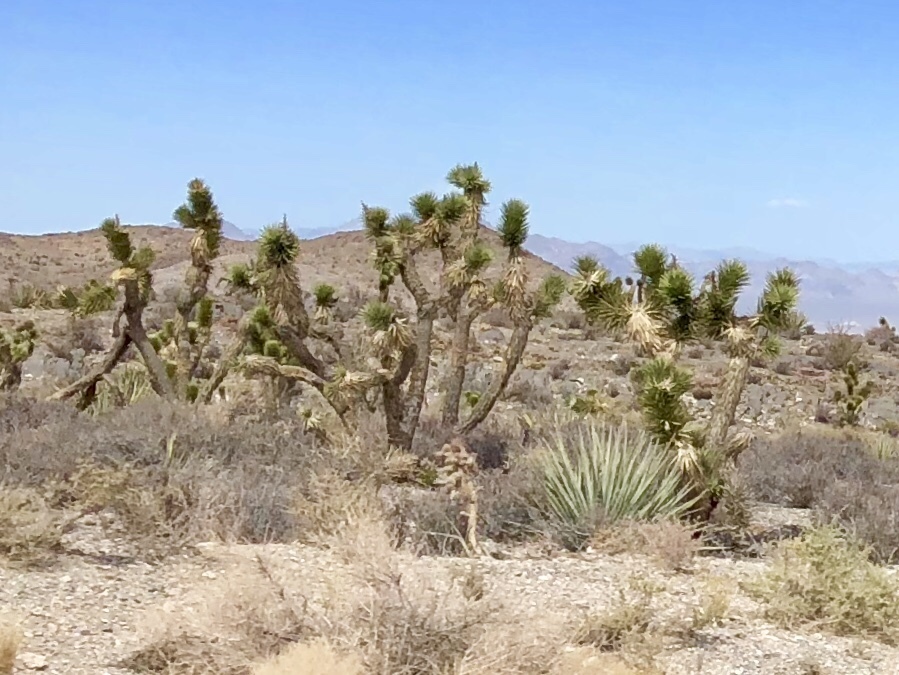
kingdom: Plantae
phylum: Tracheophyta
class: Liliopsida
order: Asparagales
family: Asparagaceae
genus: Yucca
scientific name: Yucca brevifolia
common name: Joshua tree
